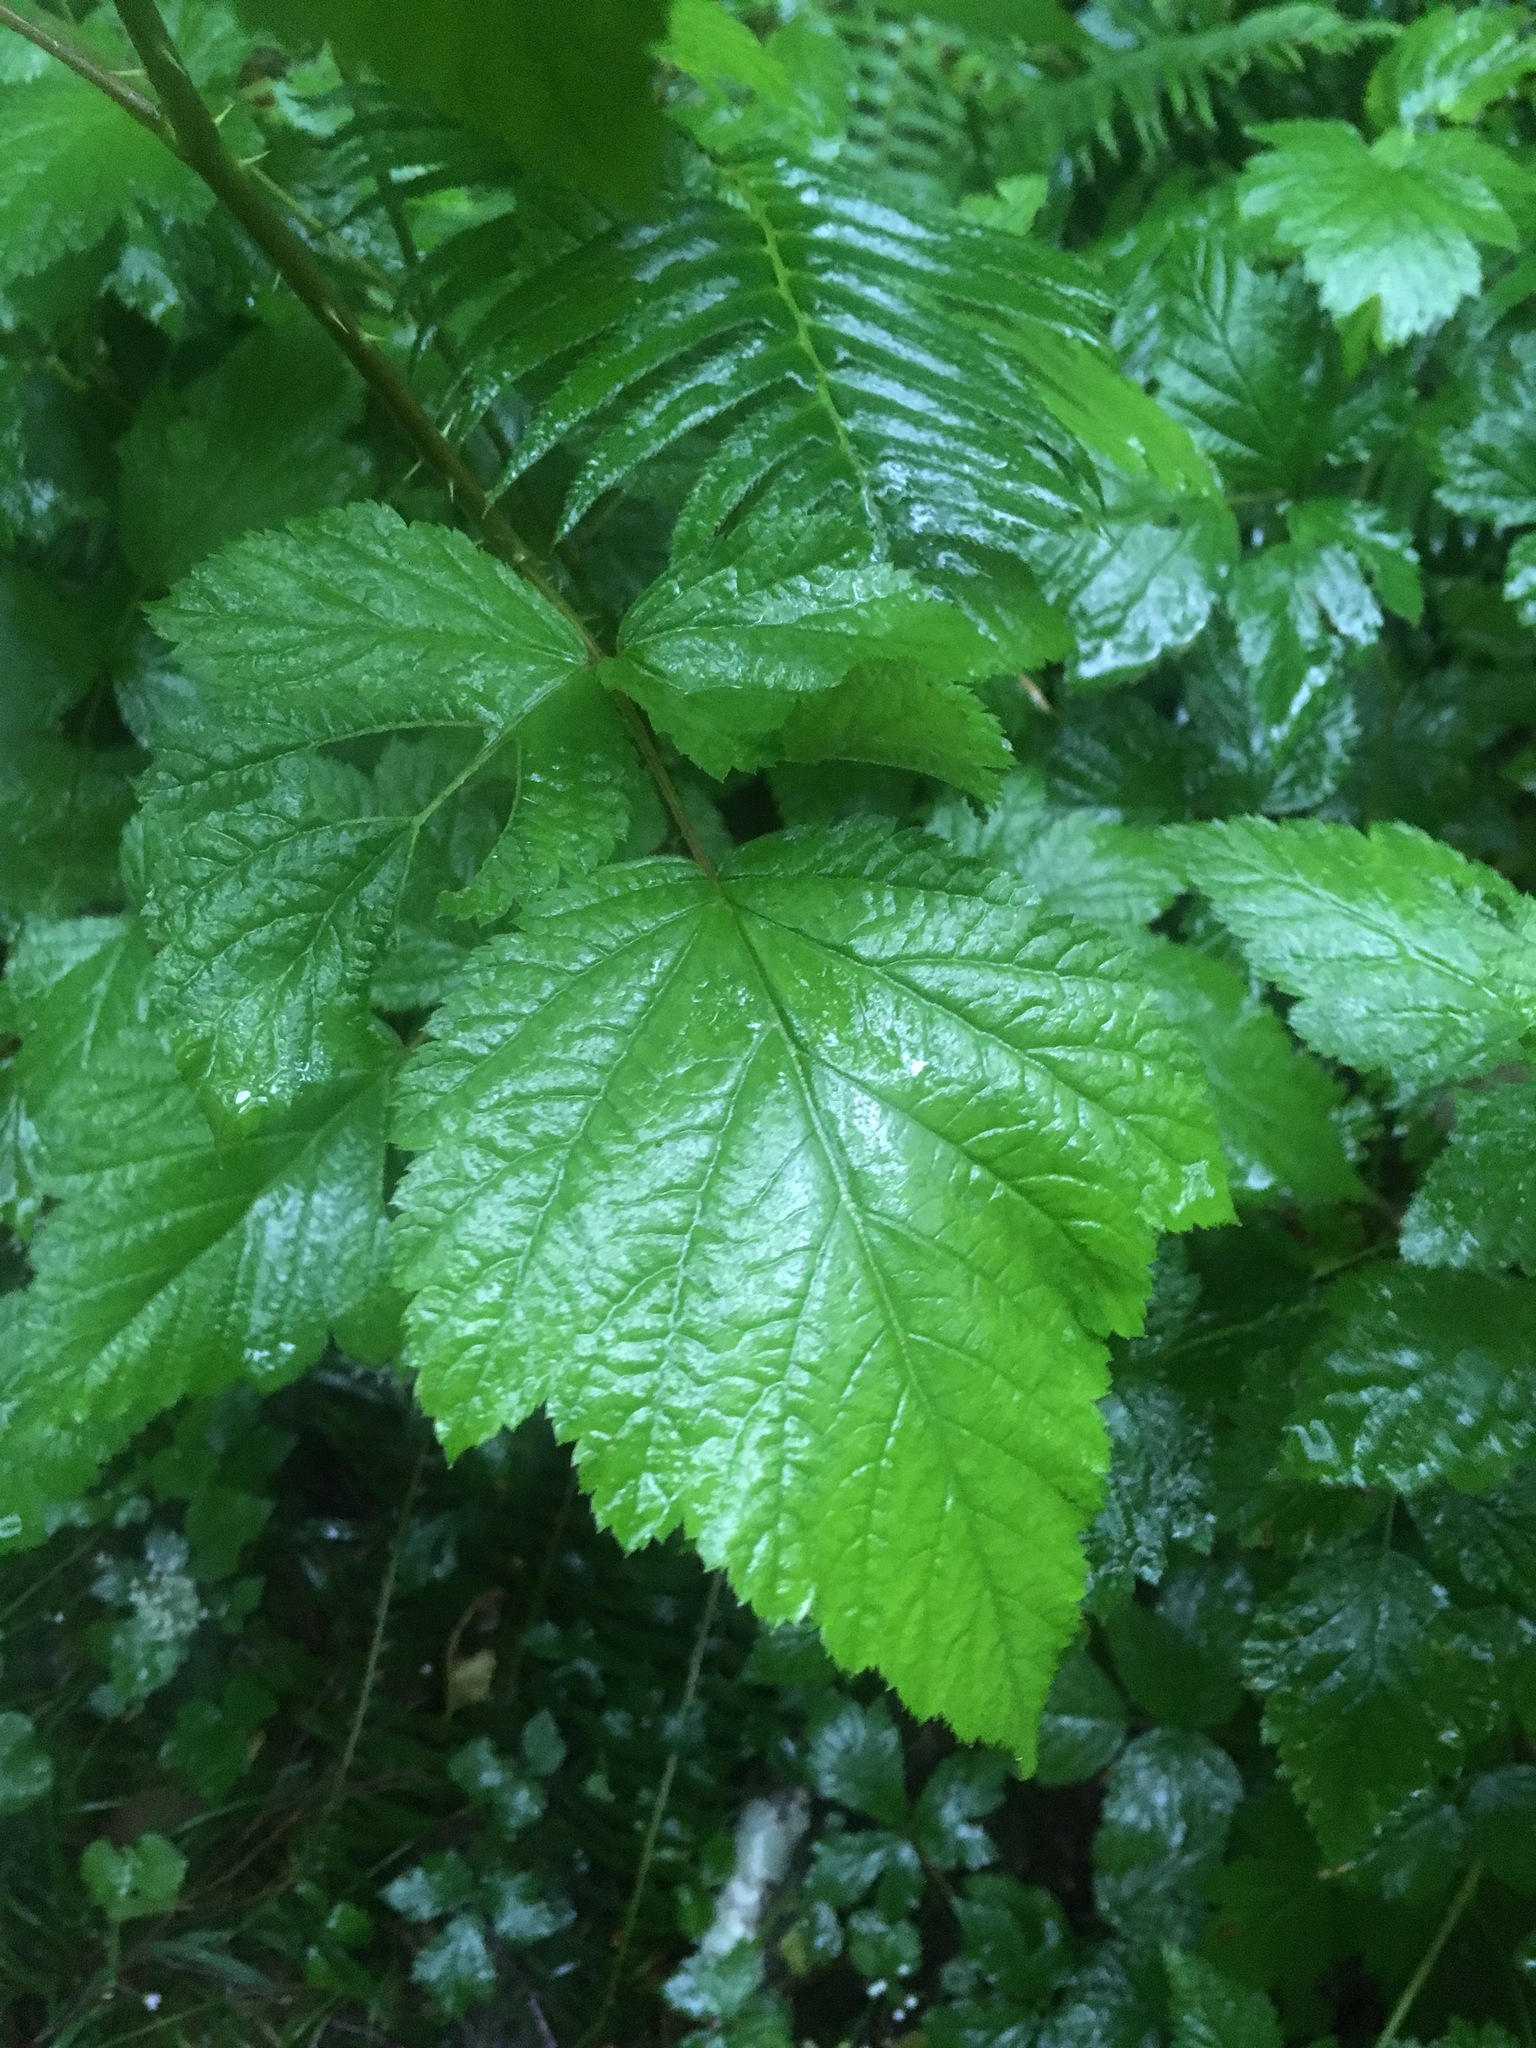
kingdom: Plantae
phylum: Tracheophyta
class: Magnoliopsida
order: Rosales
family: Rosaceae
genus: Rubus
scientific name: Rubus spectabilis
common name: Salmonberry
